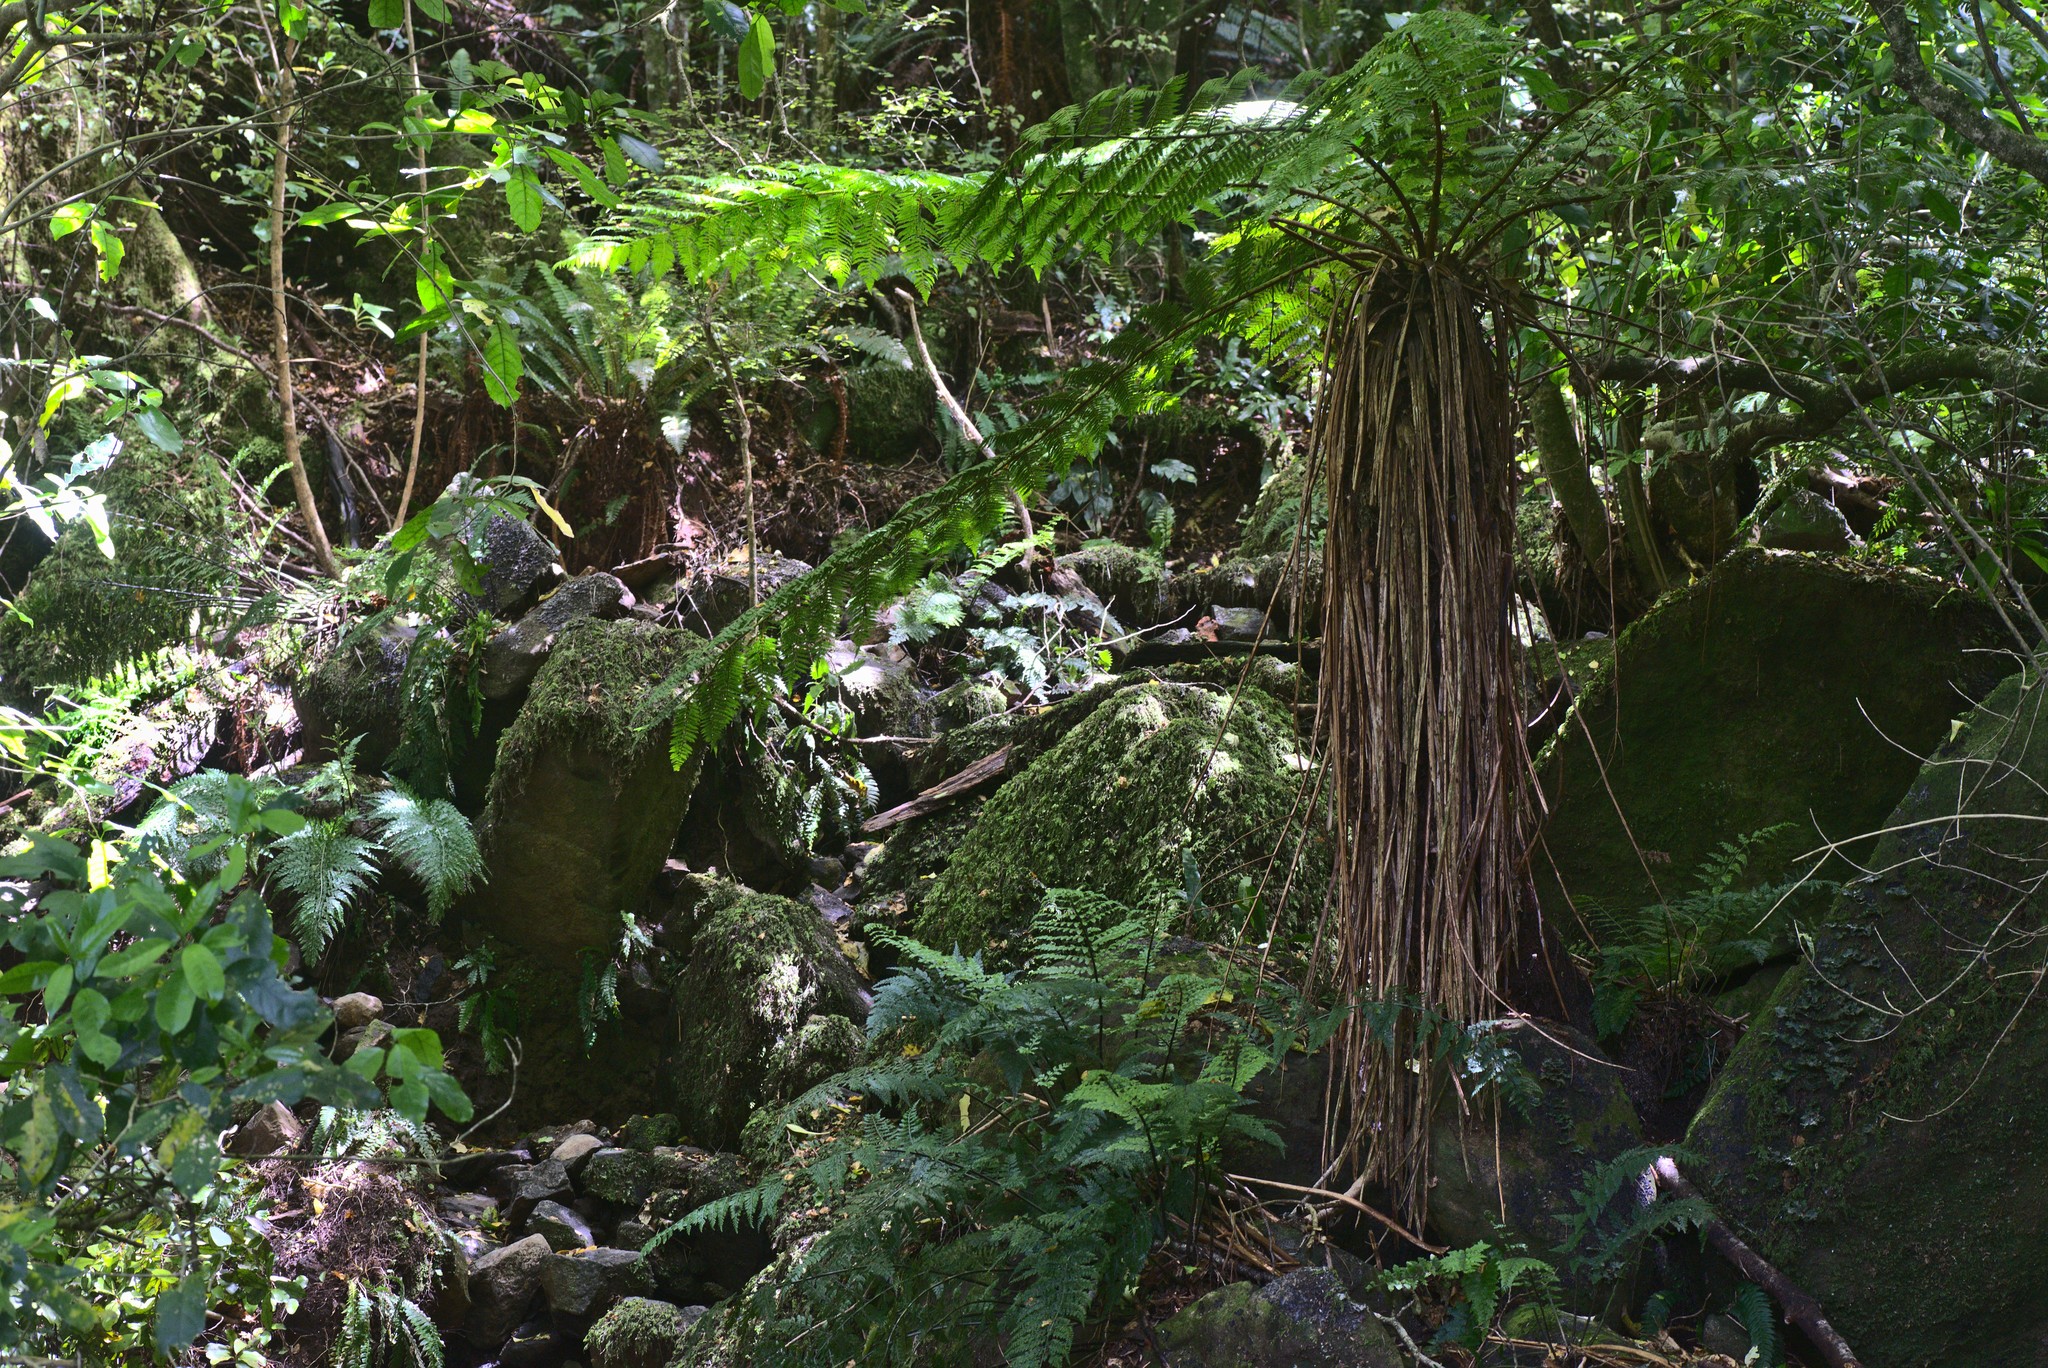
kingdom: Plantae
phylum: Tracheophyta
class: Polypodiopsida
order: Cyatheales
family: Cyatheaceae
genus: Alsophila
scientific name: Alsophila smithii
